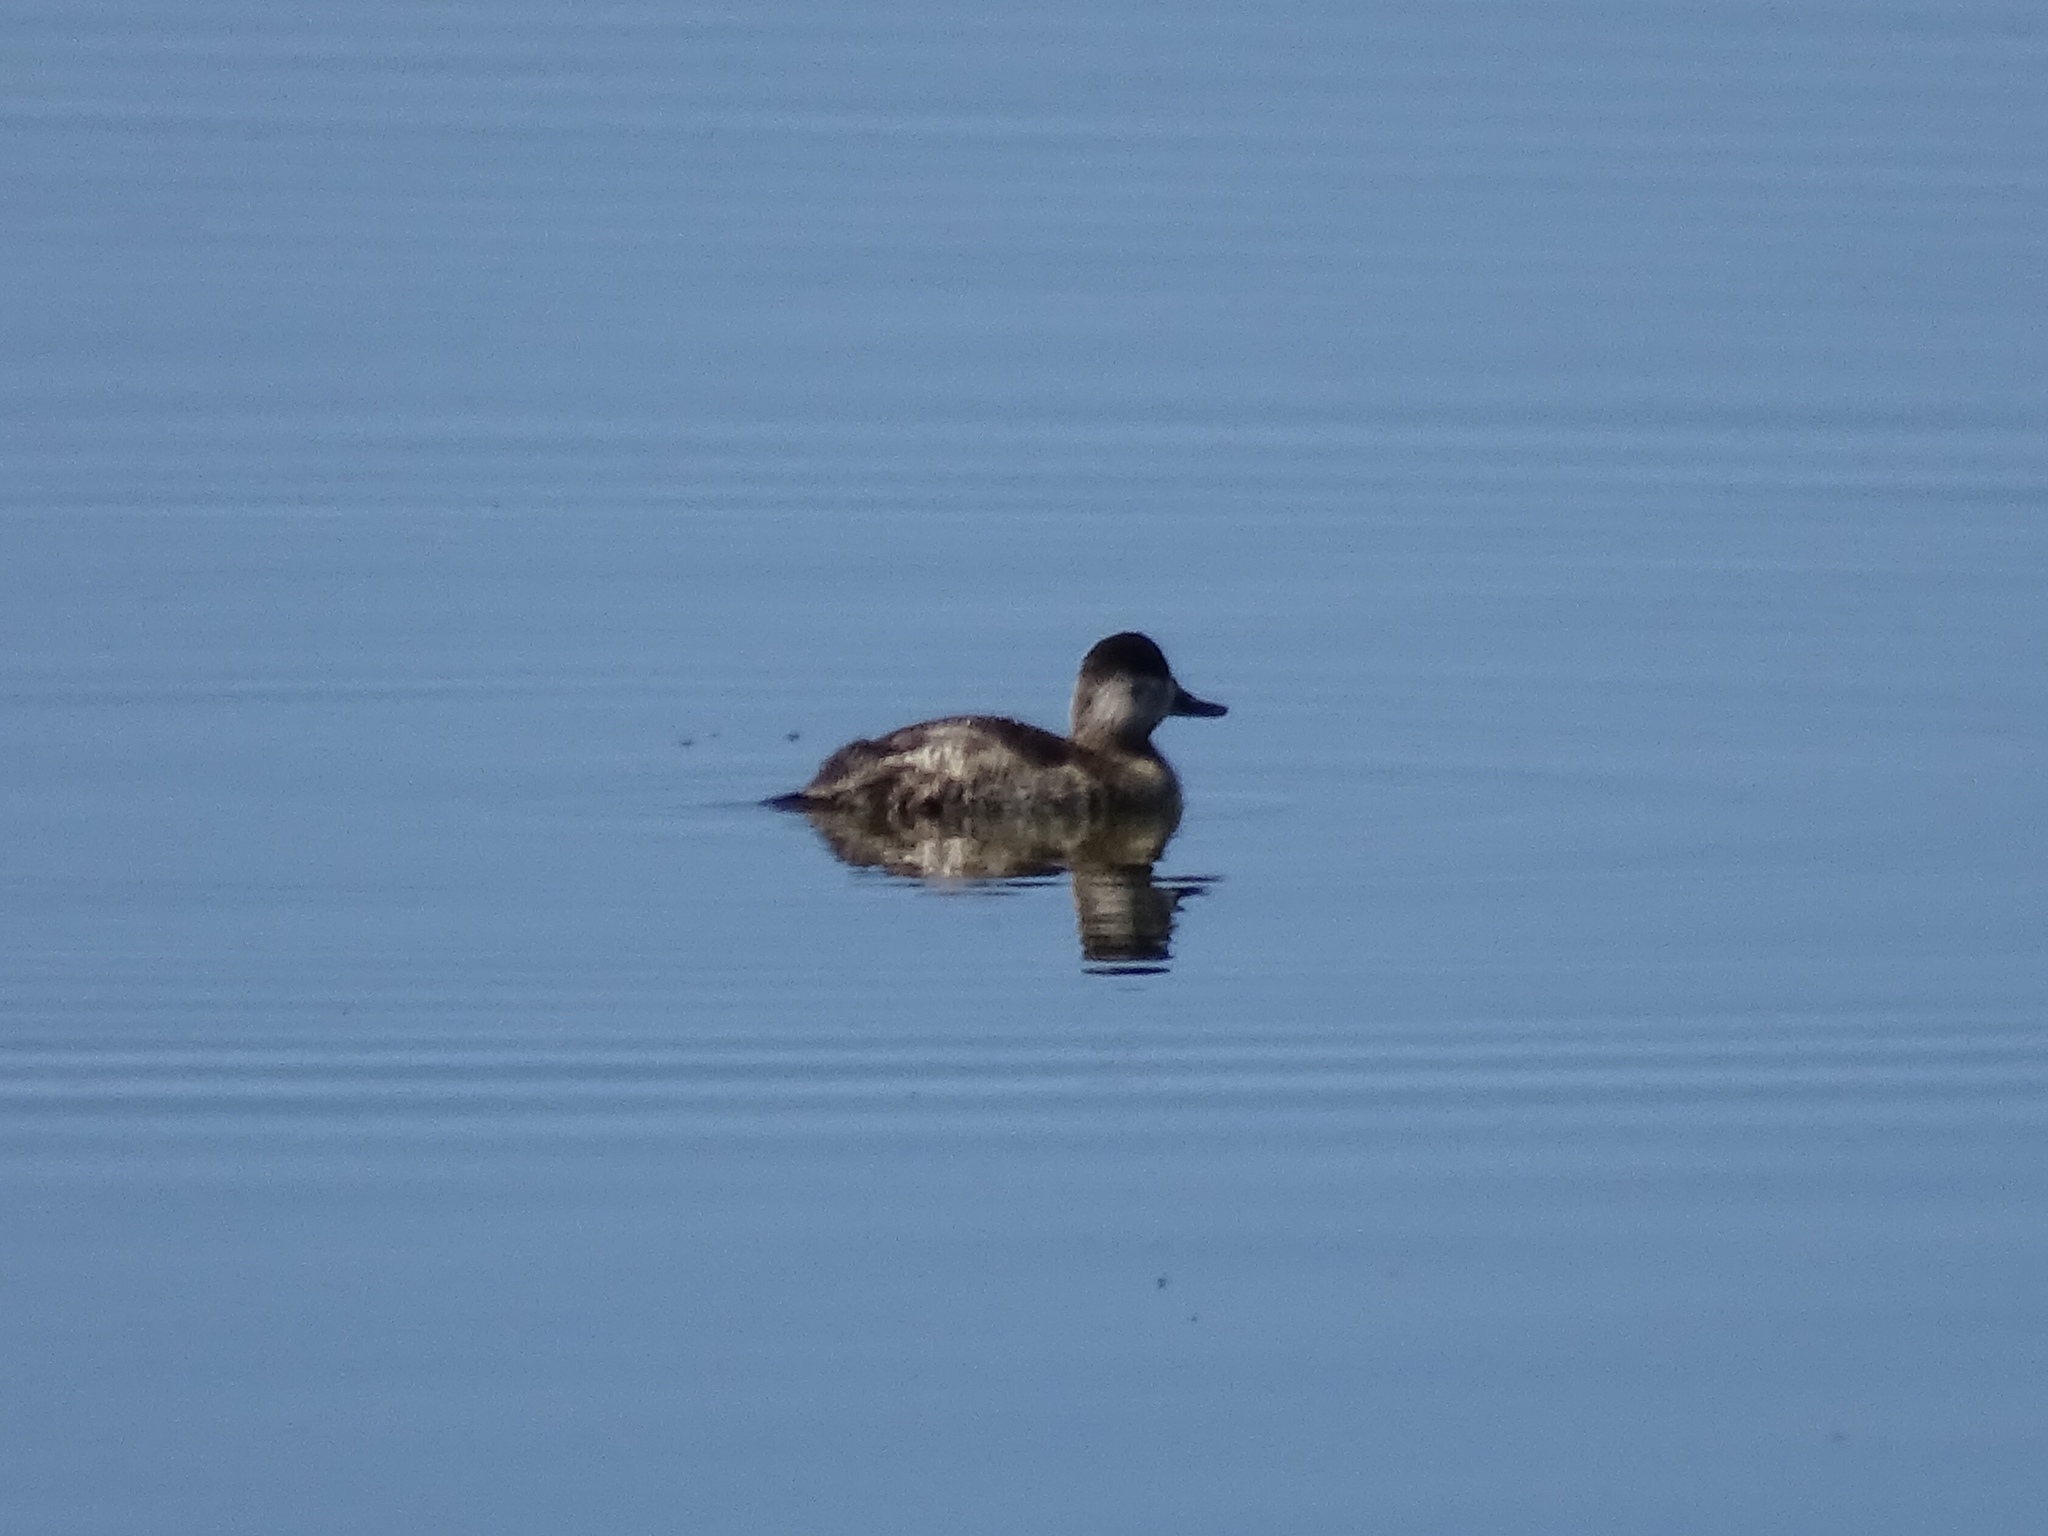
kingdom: Animalia
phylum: Chordata
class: Aves
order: Anseriformes
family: Anatidae
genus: Oxyura
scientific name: Oxyura jamaicensis
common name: Ruddy duck
